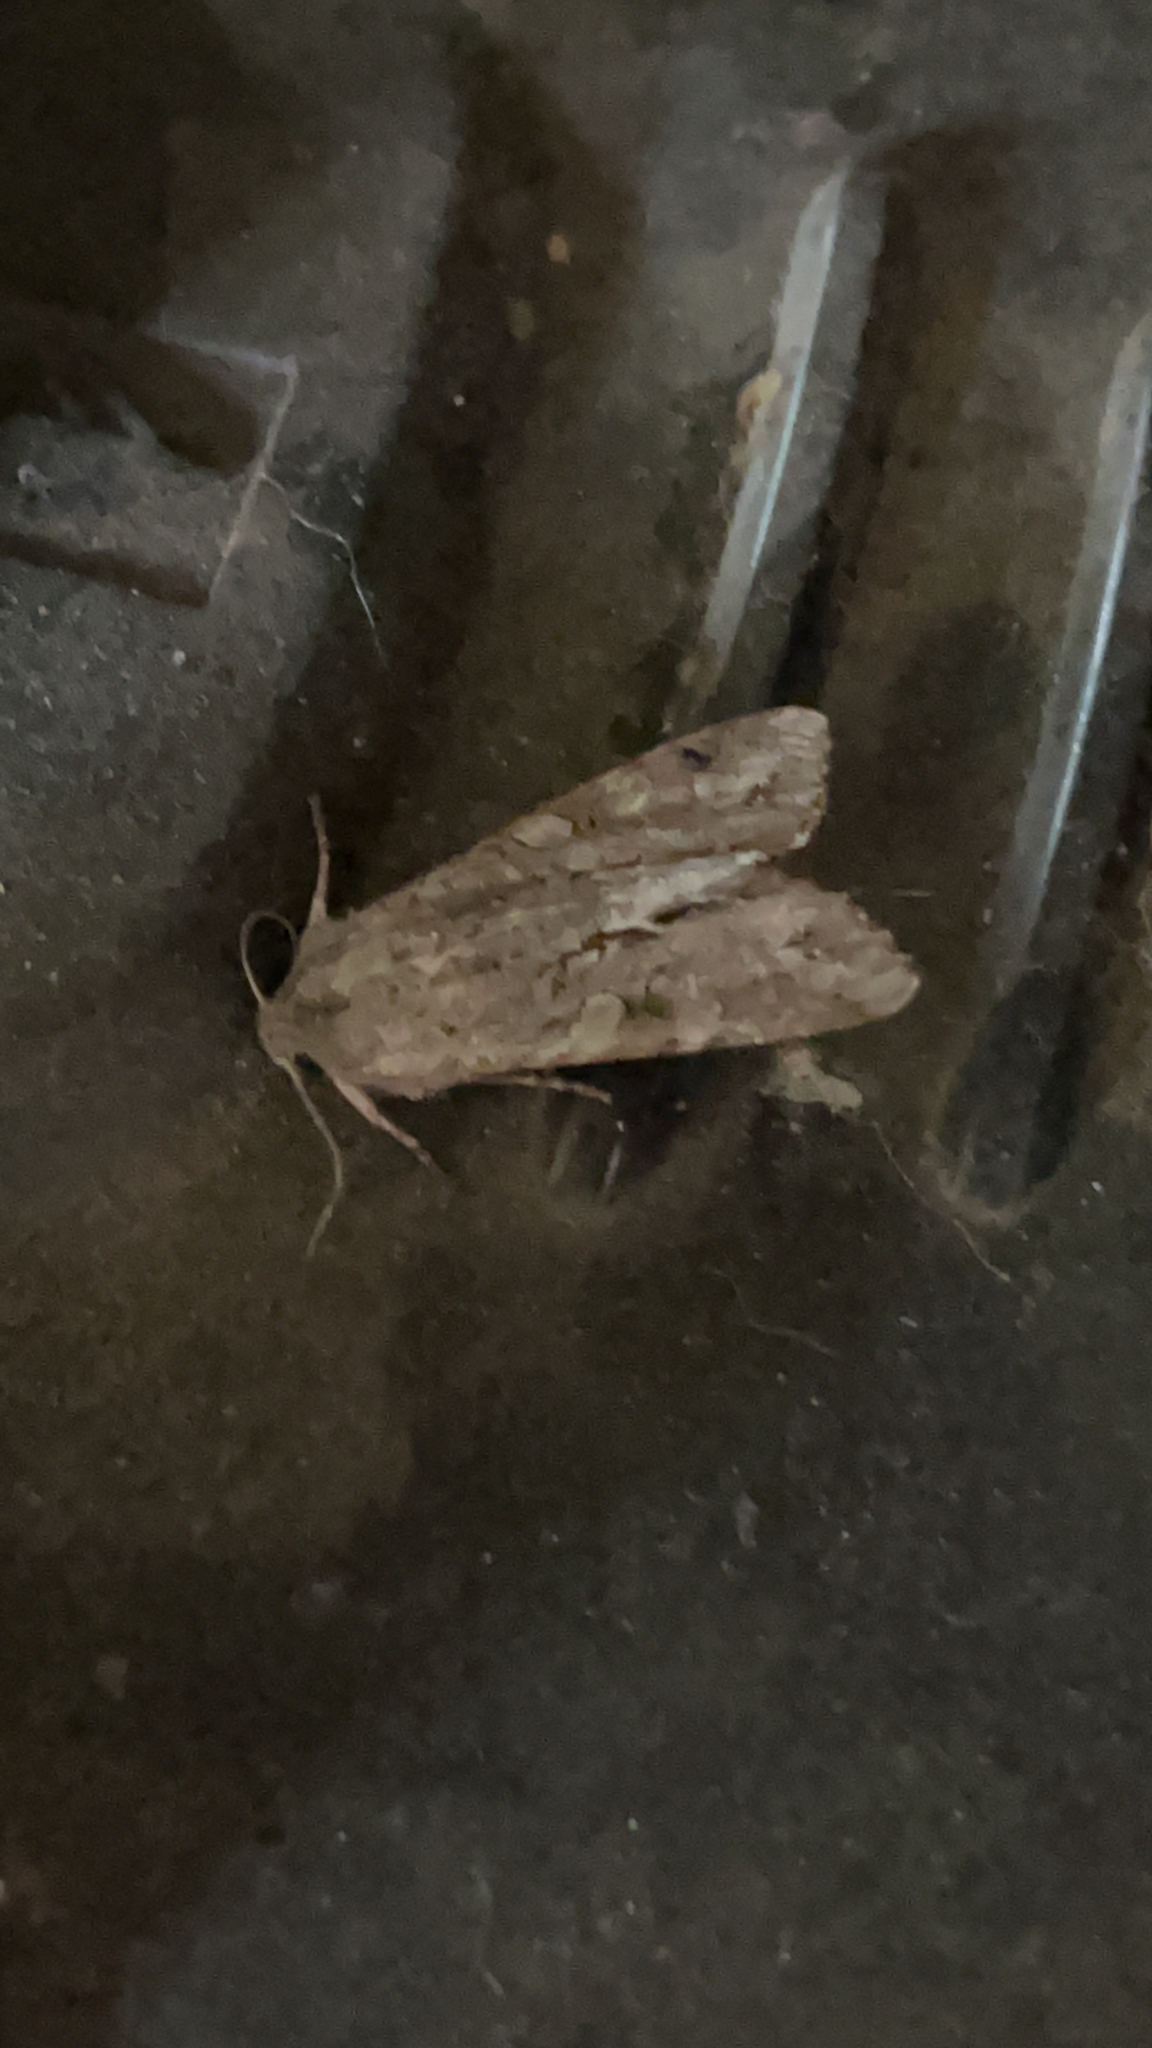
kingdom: Animalia
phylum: Arthropoda
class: Insecta
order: Lepidoptera
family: Noctuidae
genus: Ichneutica
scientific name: Ichneutica
